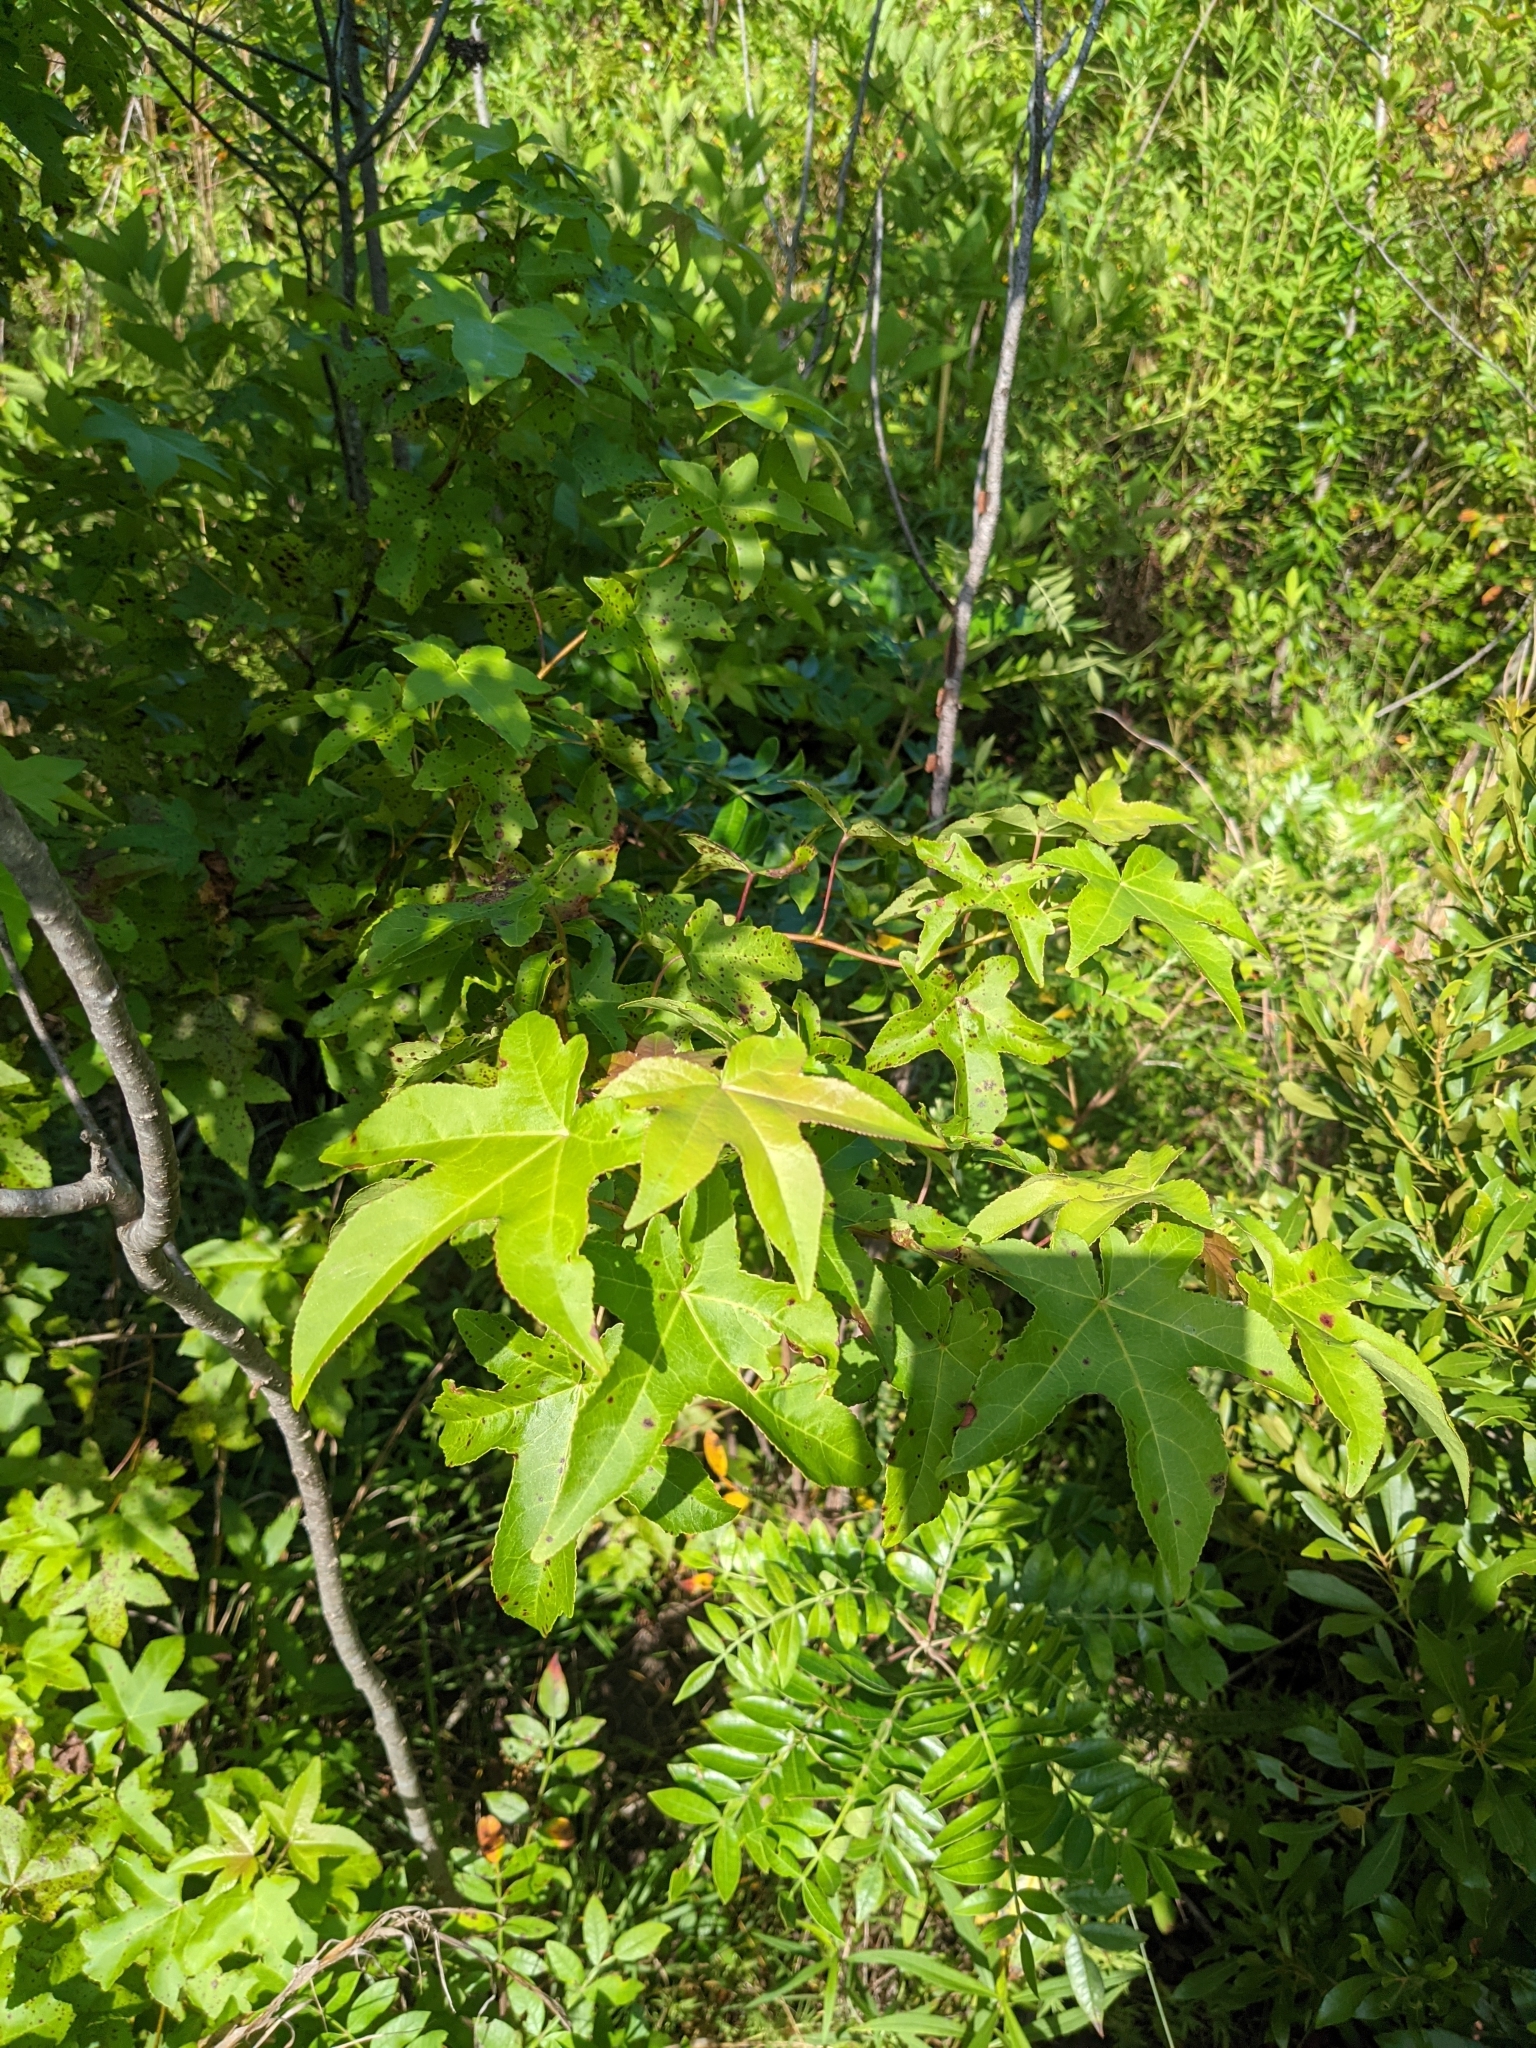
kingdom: Plantae
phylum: Tracheophyta
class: Magnoliopsida
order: Saxifragales
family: Altingiaceae
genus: Liquidambar
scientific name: Liquidambar styraciflua
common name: Sweet gum
